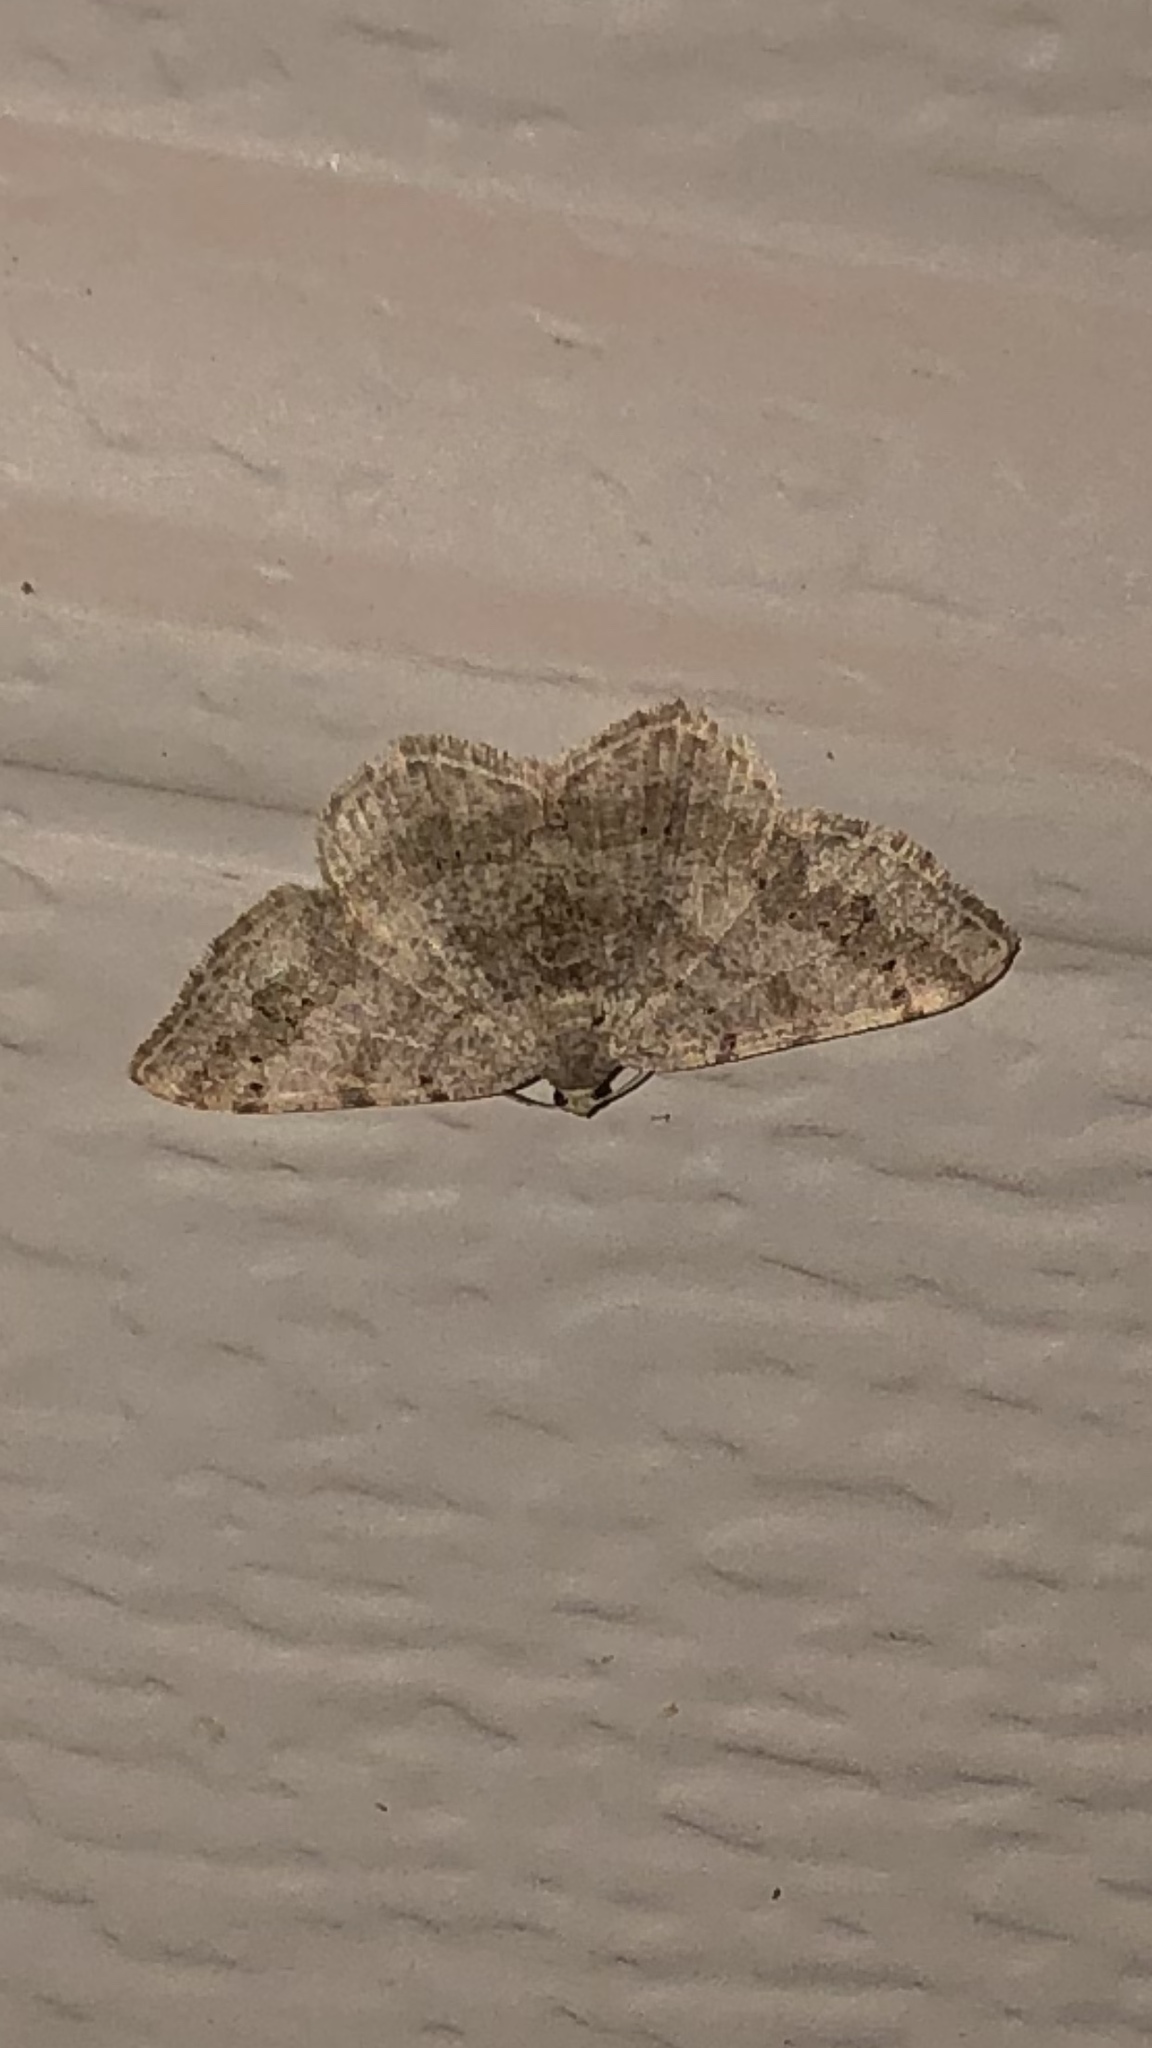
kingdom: Animalia
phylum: Arthropoda
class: Insecta
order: Lepidoptera
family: Geometridae
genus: Digrammia
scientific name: Digrammia ocellinata
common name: Faint-spotted angle
